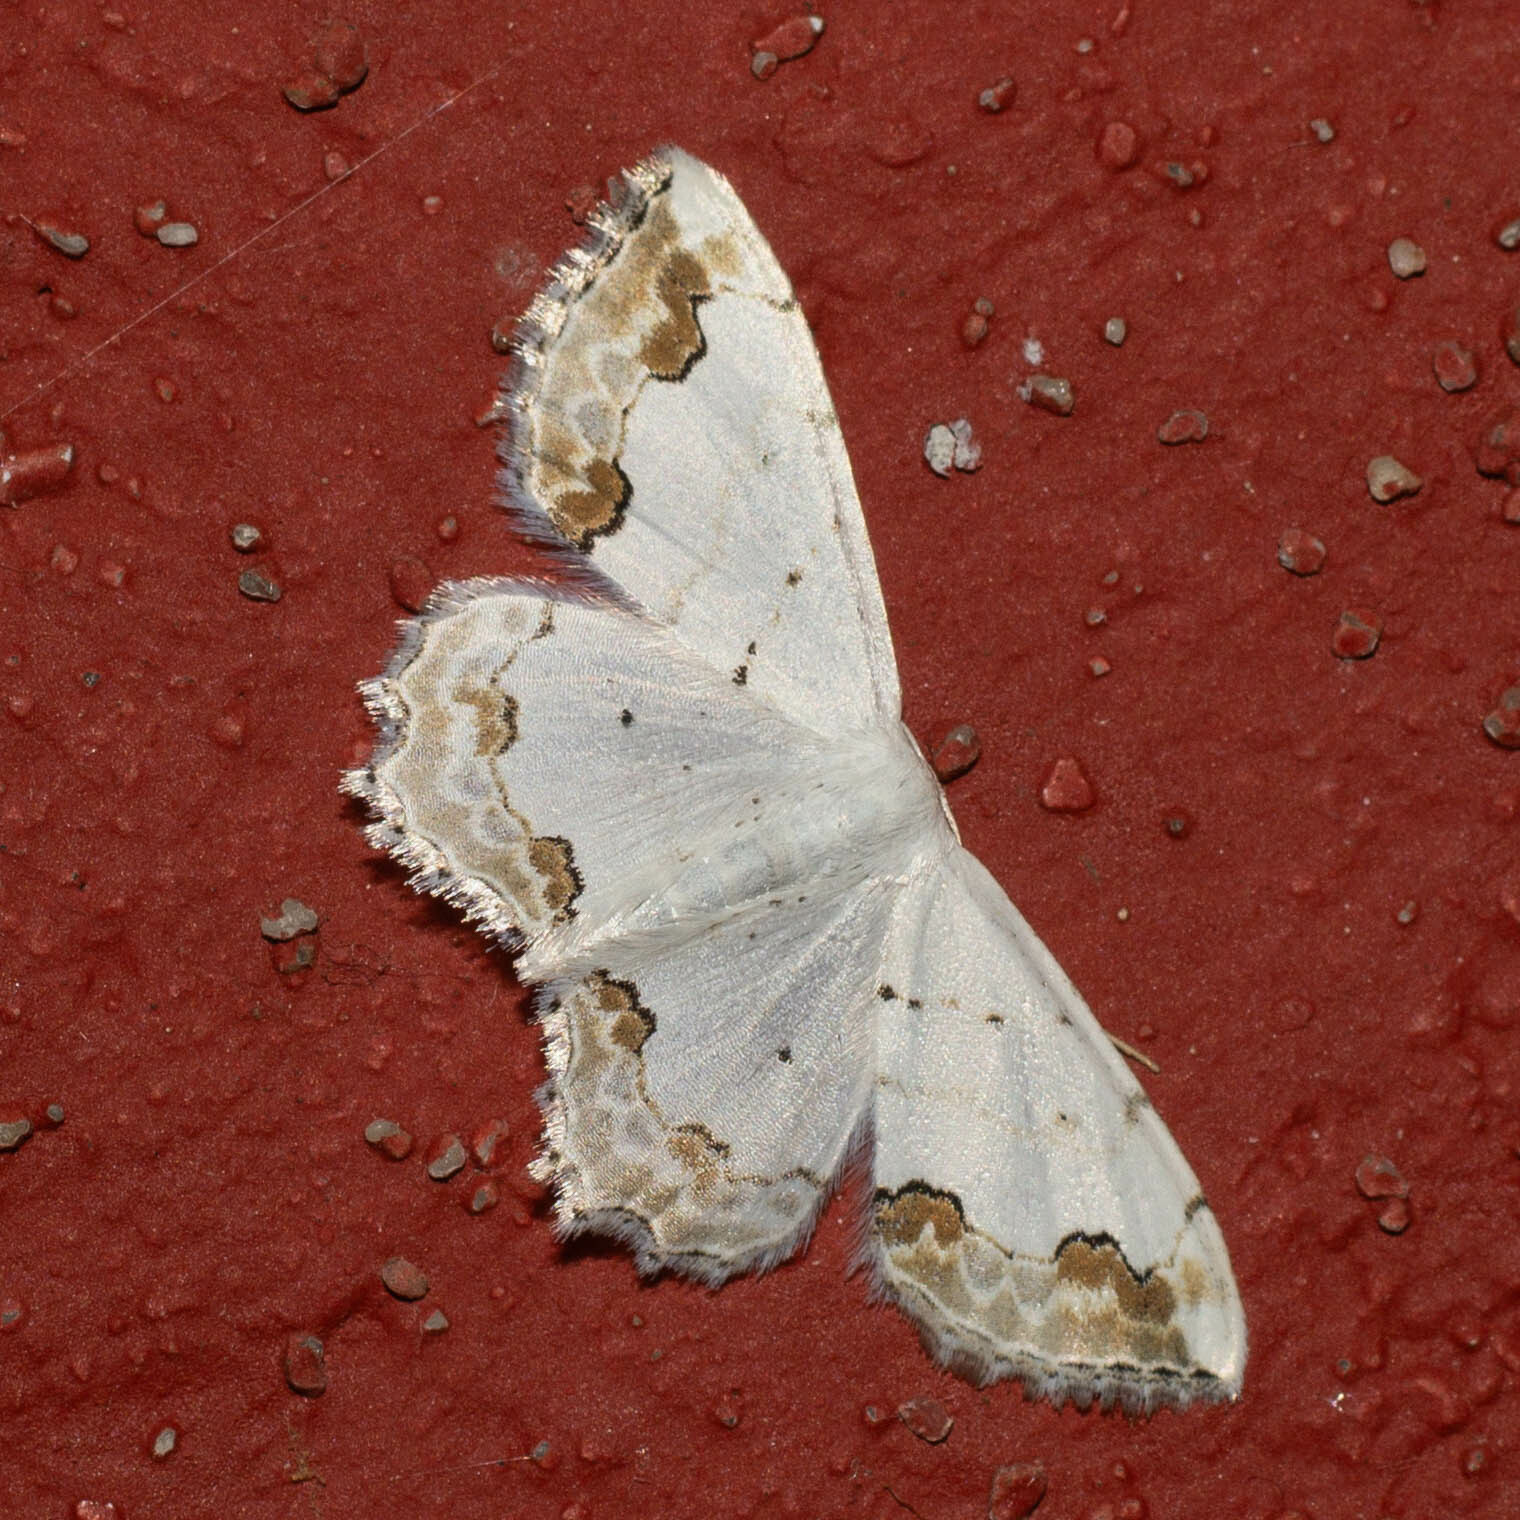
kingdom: Animalia
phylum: Arthropoda
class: Insecta
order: Lepidoptera
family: Geometridae
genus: Scopula
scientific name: Scopula ornata
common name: Lace border
